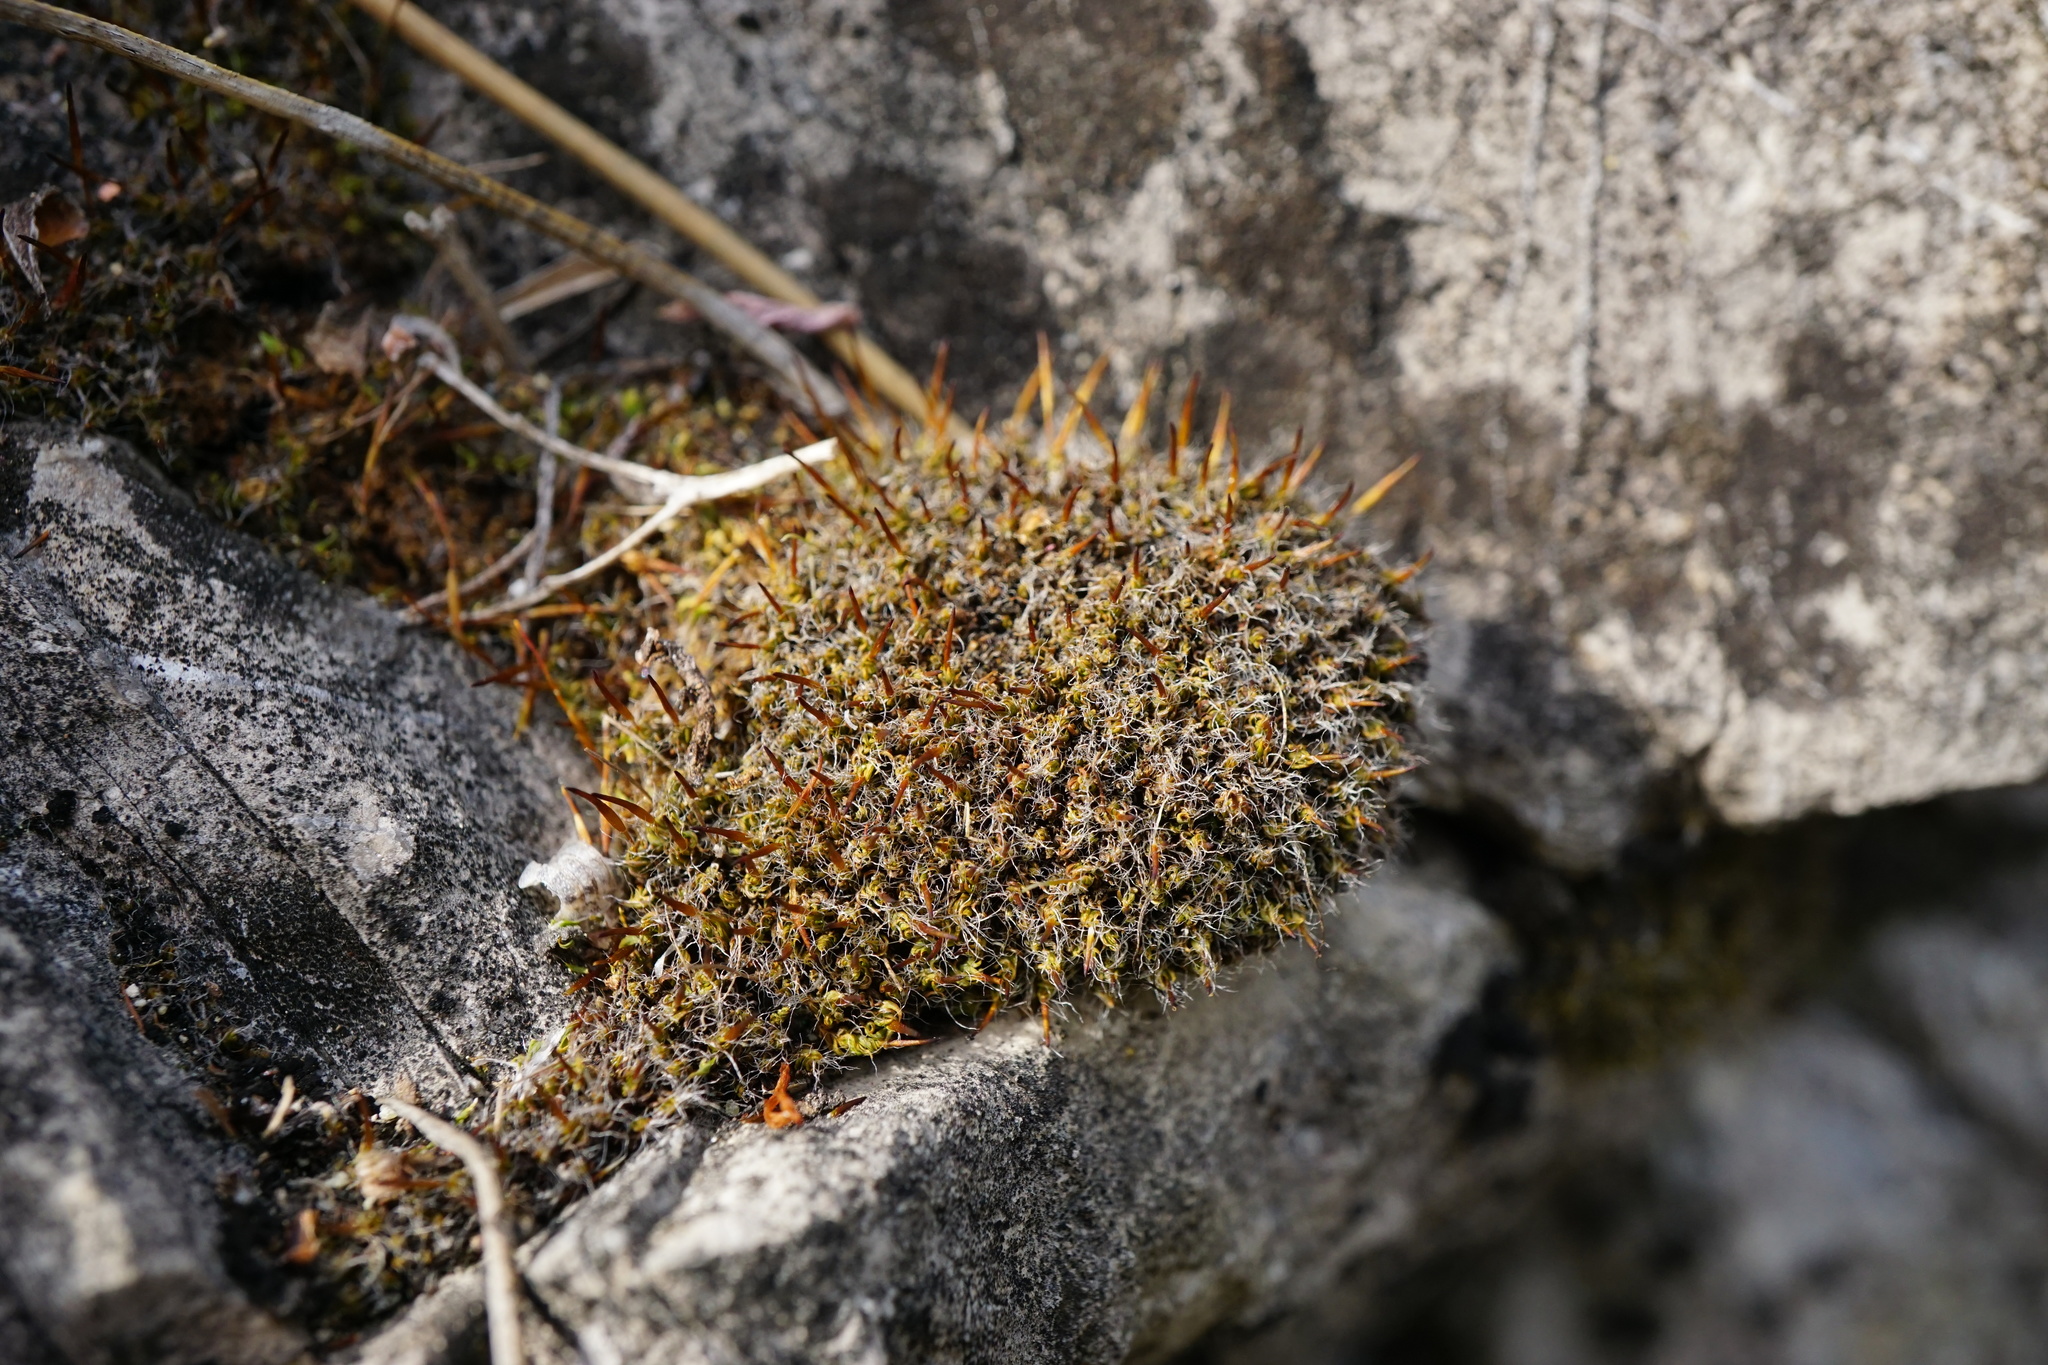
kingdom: Plantae
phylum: Bryophyta
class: Bryopsida
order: Pottiales
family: Pottiaceae
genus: Tortula
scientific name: Tortula muralis
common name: Wall screw-moss
